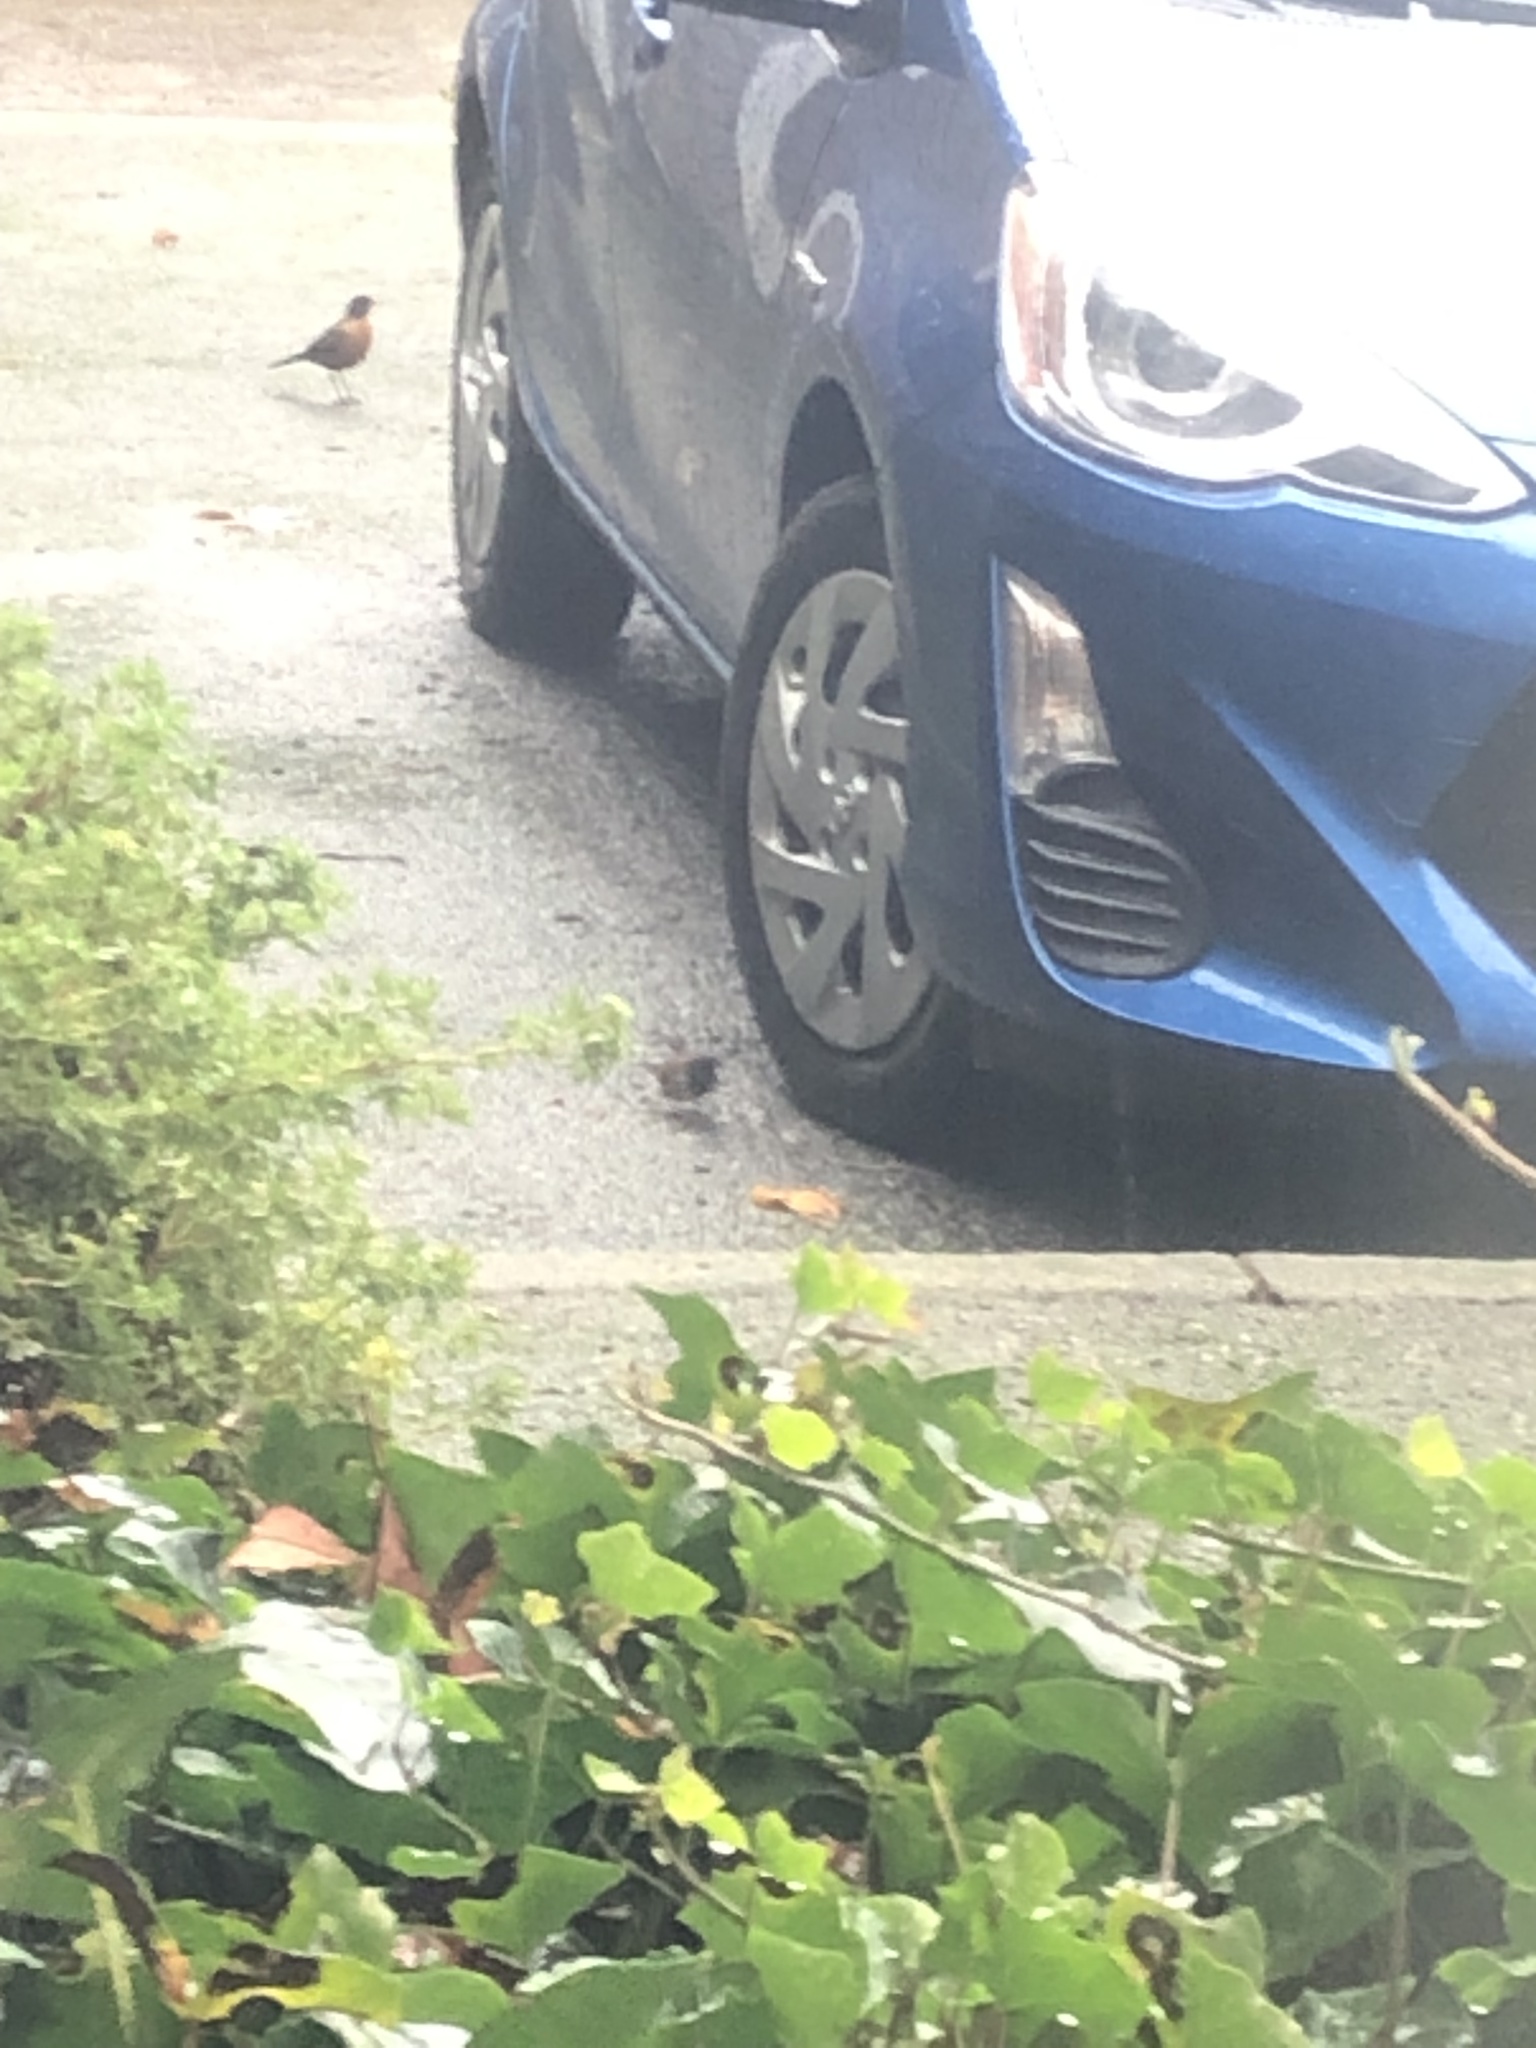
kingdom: Animalia
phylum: Chordata
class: Aves
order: Passeriformes
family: Passerellidae
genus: Junco
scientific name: Junco hyemalis
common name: Dark-eyed junco
